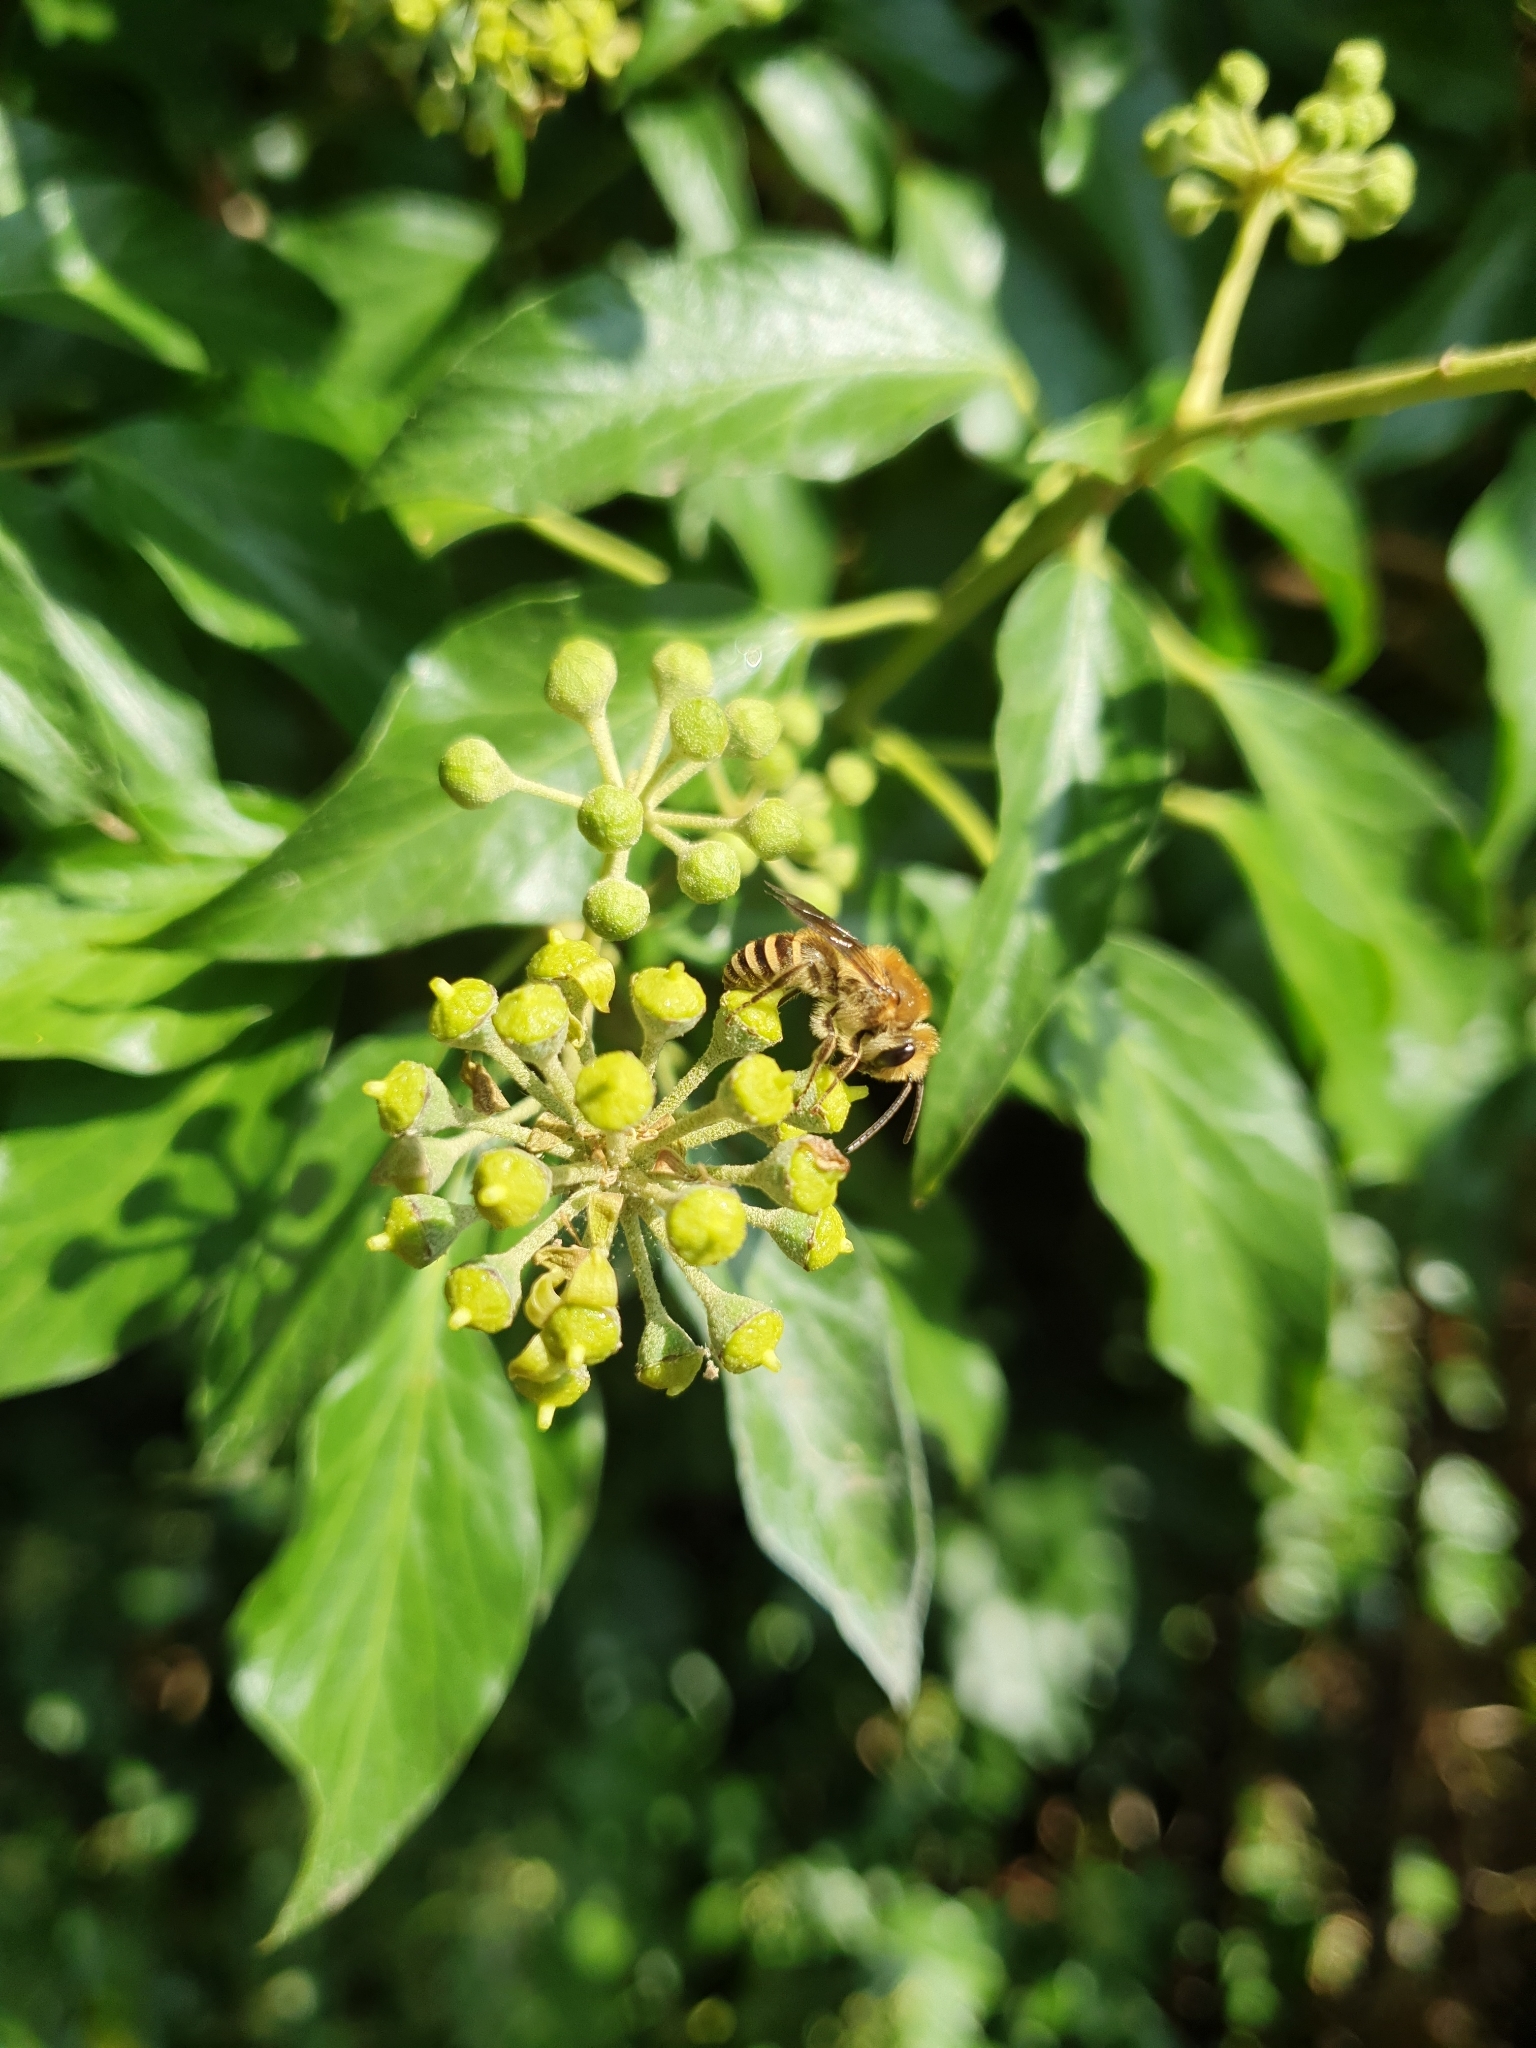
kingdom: Animalia
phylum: Arthropoda
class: Insecta
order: Hymenoptera
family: Colletidae
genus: Colletes
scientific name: Colletes hederae
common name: Ivy bee
